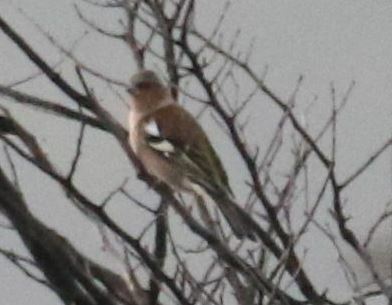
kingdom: Animalia
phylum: Chordata
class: Aves
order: Passeriformes
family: Fringillidae
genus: Fringilla
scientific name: Fringilla coelebs
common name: Common chaffinch
